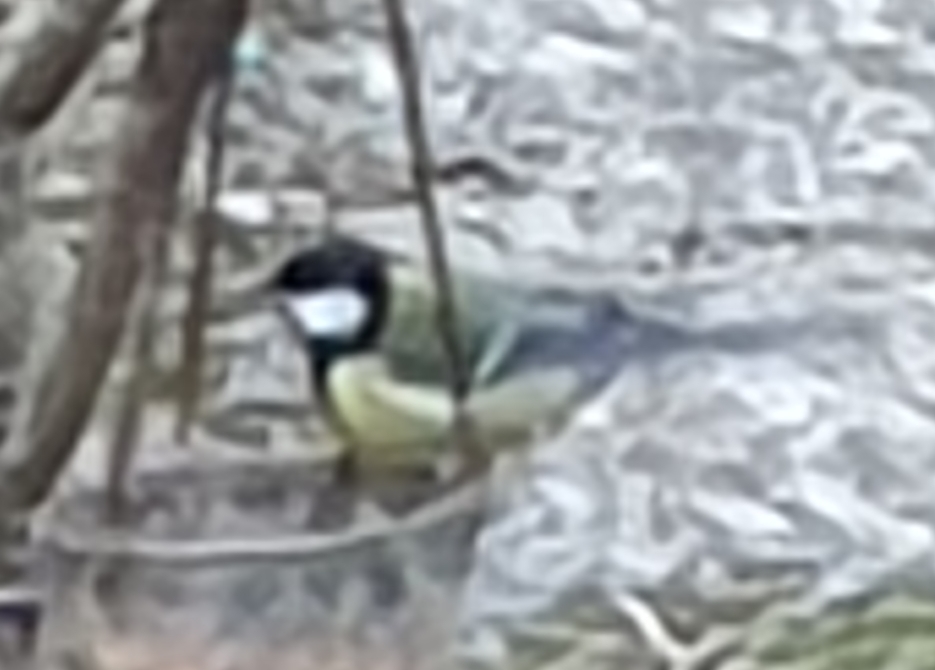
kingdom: Animalia
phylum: Chordata
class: Aves
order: Passeriformes
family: Paridae
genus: Parus
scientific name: Parus major
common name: Great tit
